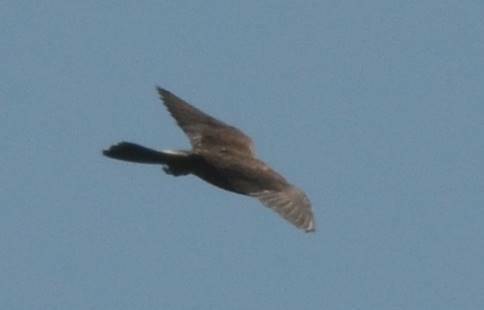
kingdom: Animalia
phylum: Chordata
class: Aves
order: Falconiformes
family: Falconidae
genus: Falco
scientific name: Falco tinnunculus
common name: Common kestrel
